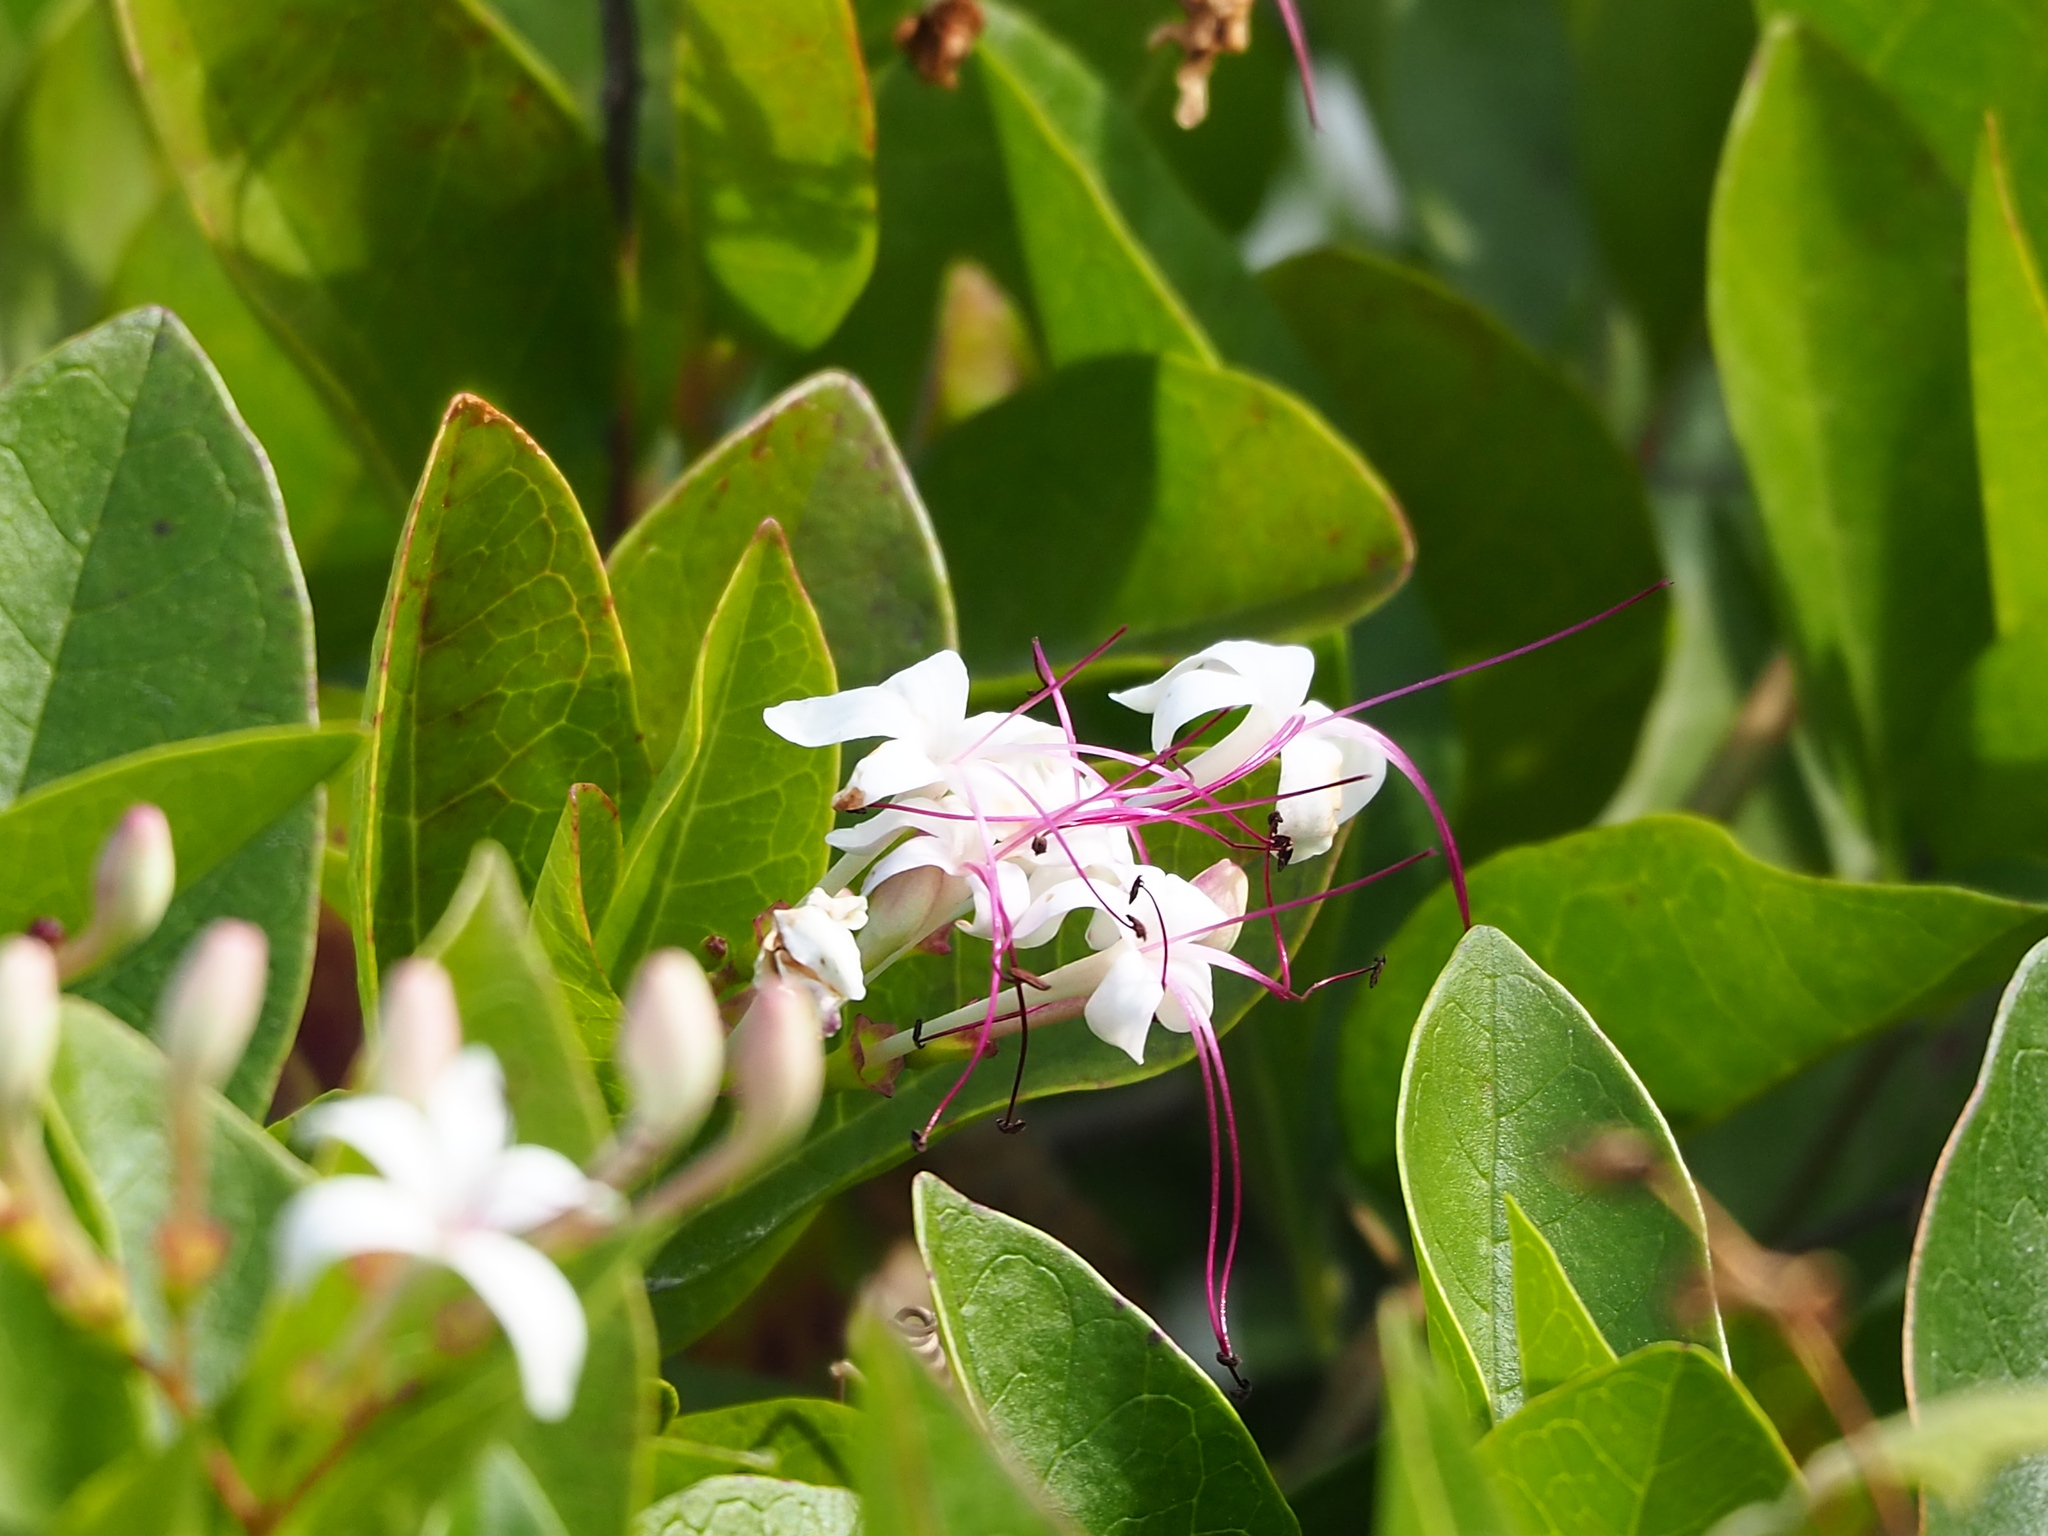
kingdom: Plantae
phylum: Tracheophyta
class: Magnoliopsida
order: Lamiales
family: Lamiaceae
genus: Volkameria
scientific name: Volkameria inermis
